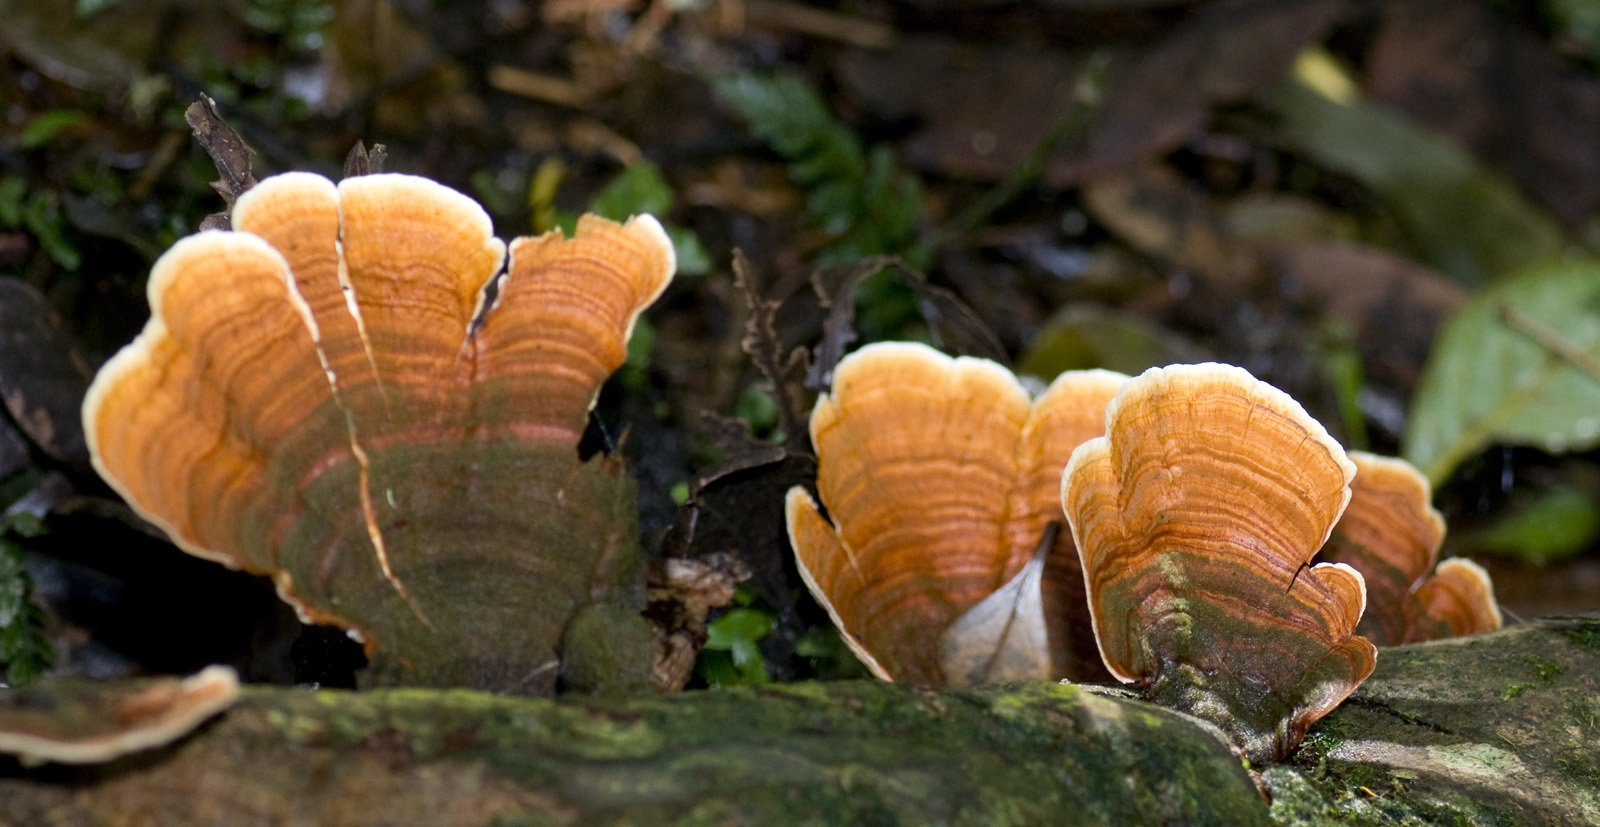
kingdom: Fungi
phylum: Basidiomycota
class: Agaricomycetes
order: Russulales
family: Stereaceae
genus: Stereum
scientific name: Stereum versicolor
